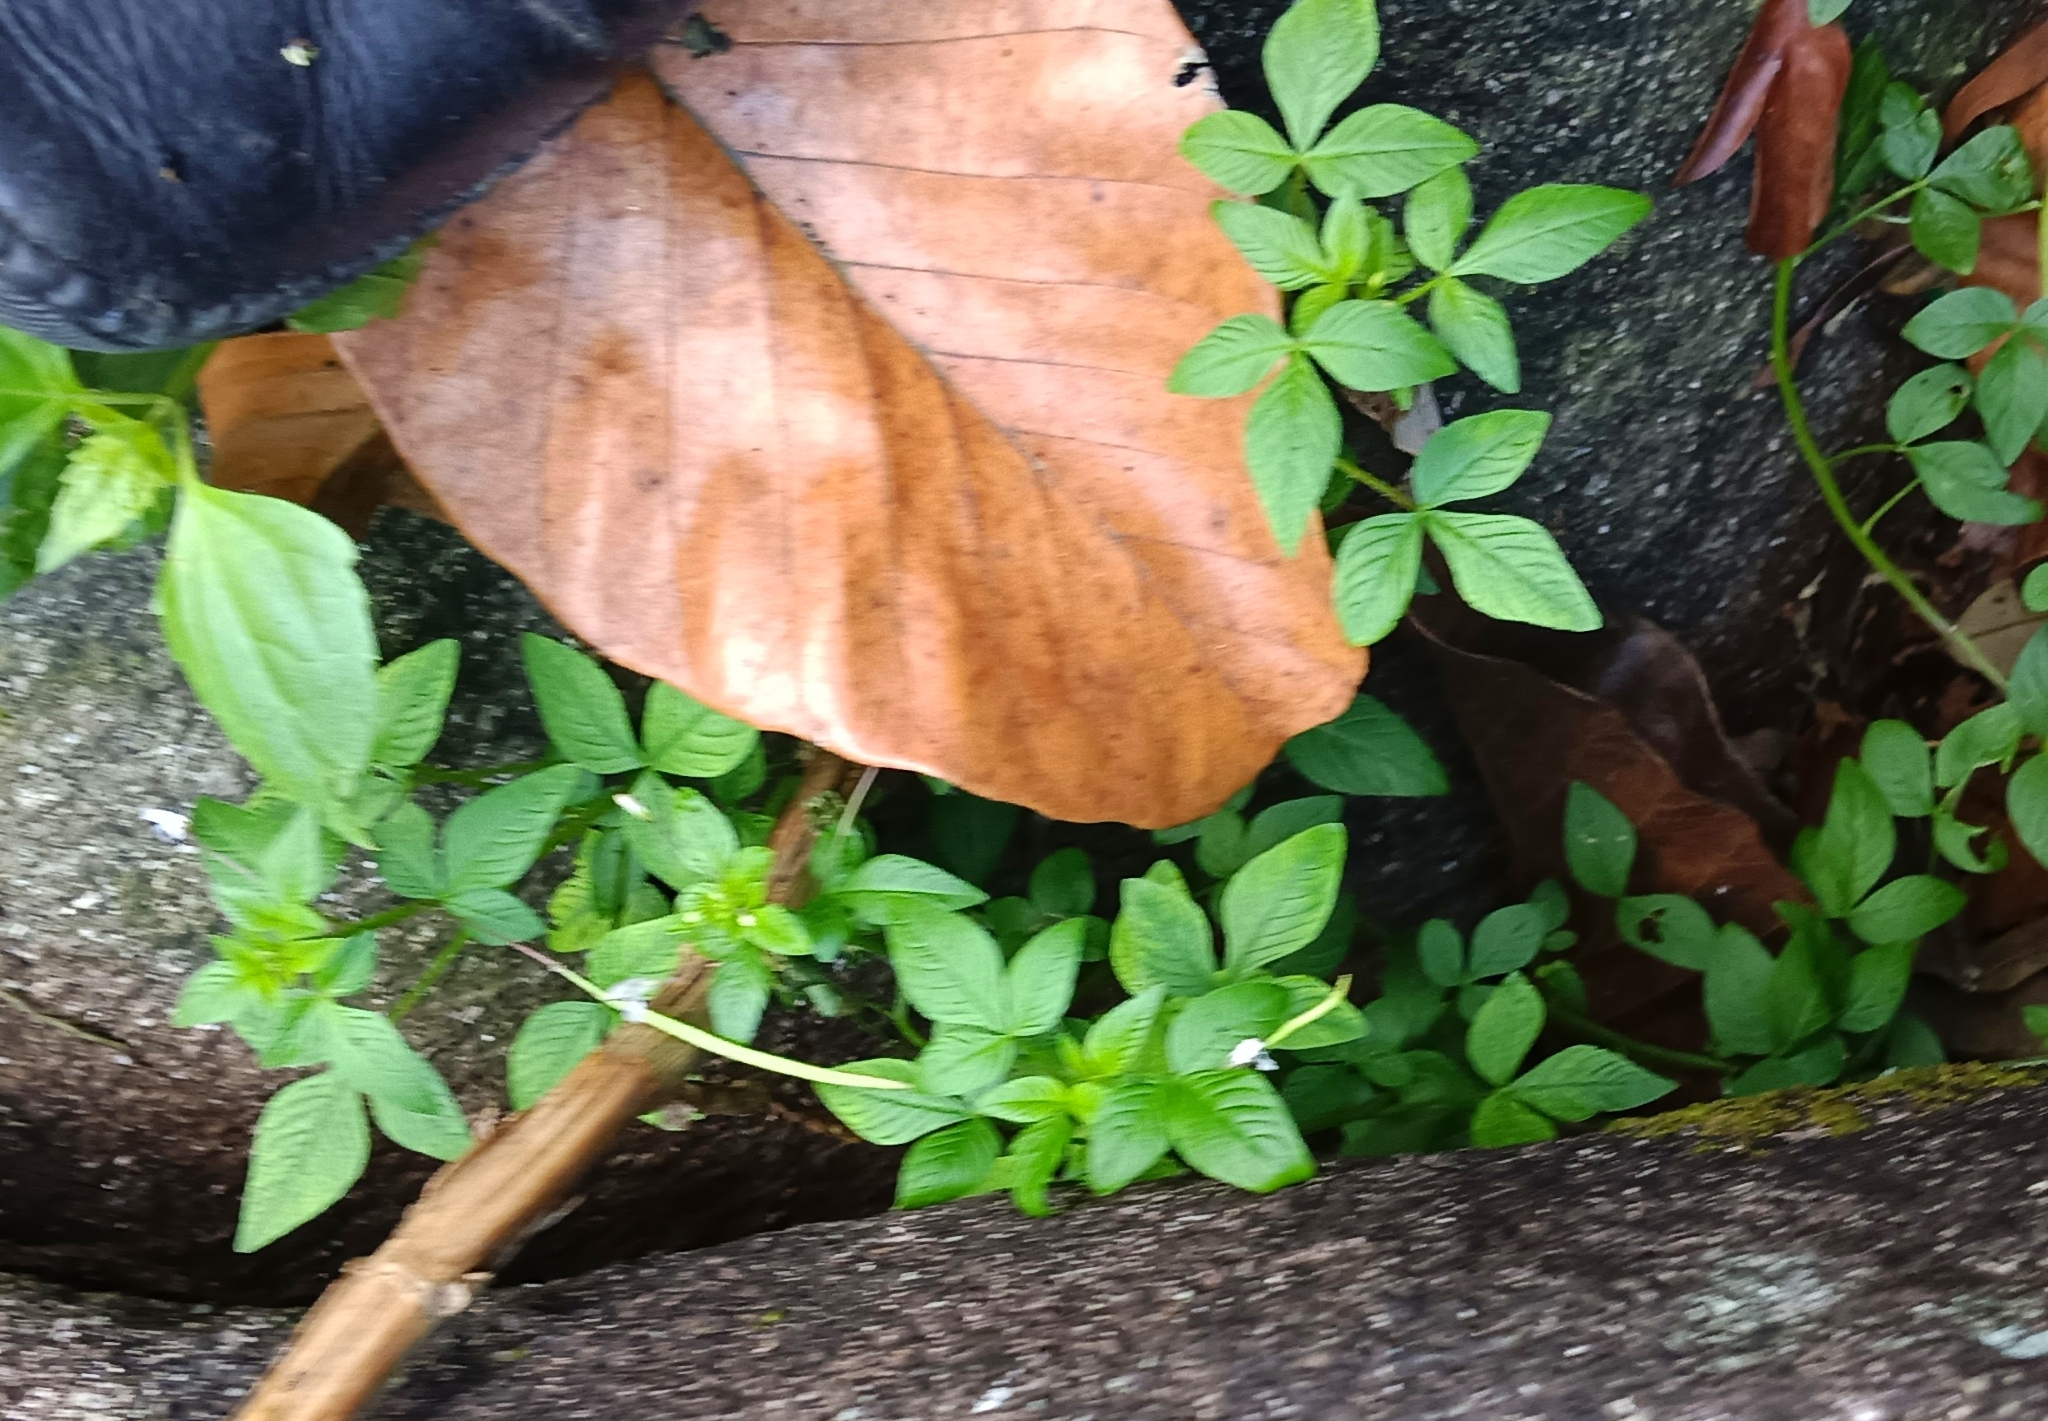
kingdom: Plantae
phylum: Tracheophyta
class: Magnoliopsida
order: Brassicales
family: Cleomaceae
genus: Sieruela
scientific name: Sieruela rutidosperma
